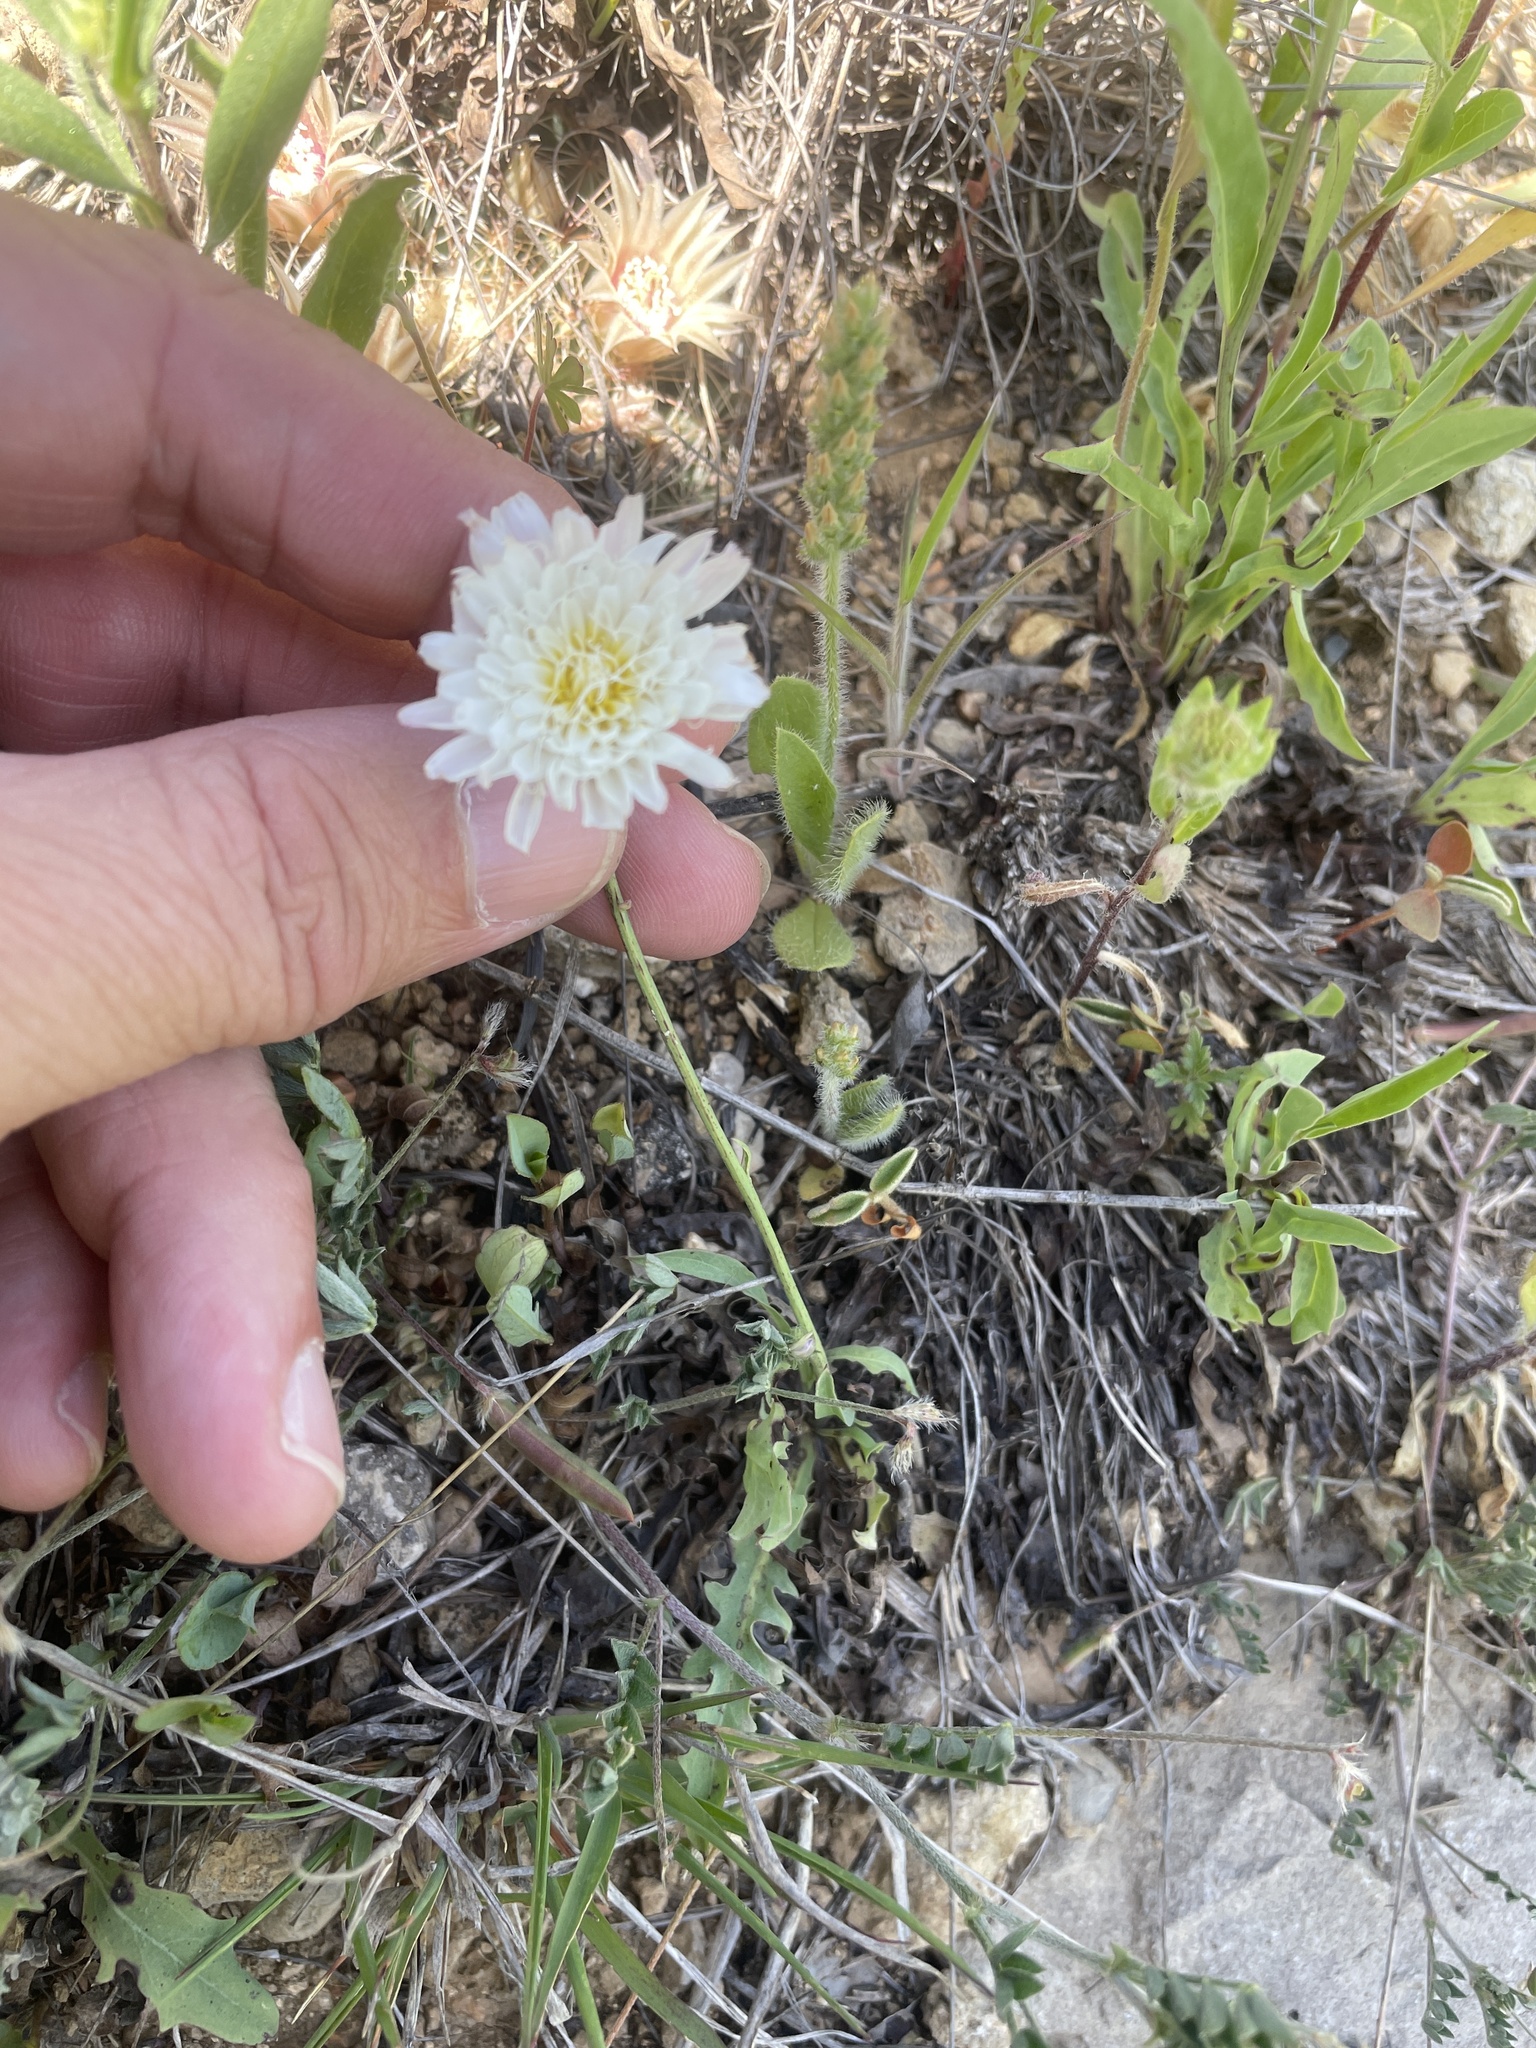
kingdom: Plantae
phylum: Tracheophyta
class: Magnoliopsida
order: Asterales
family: Asteraceae
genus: Pinaropappus
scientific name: Pinaropappus roseus
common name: Rock-lettuce
